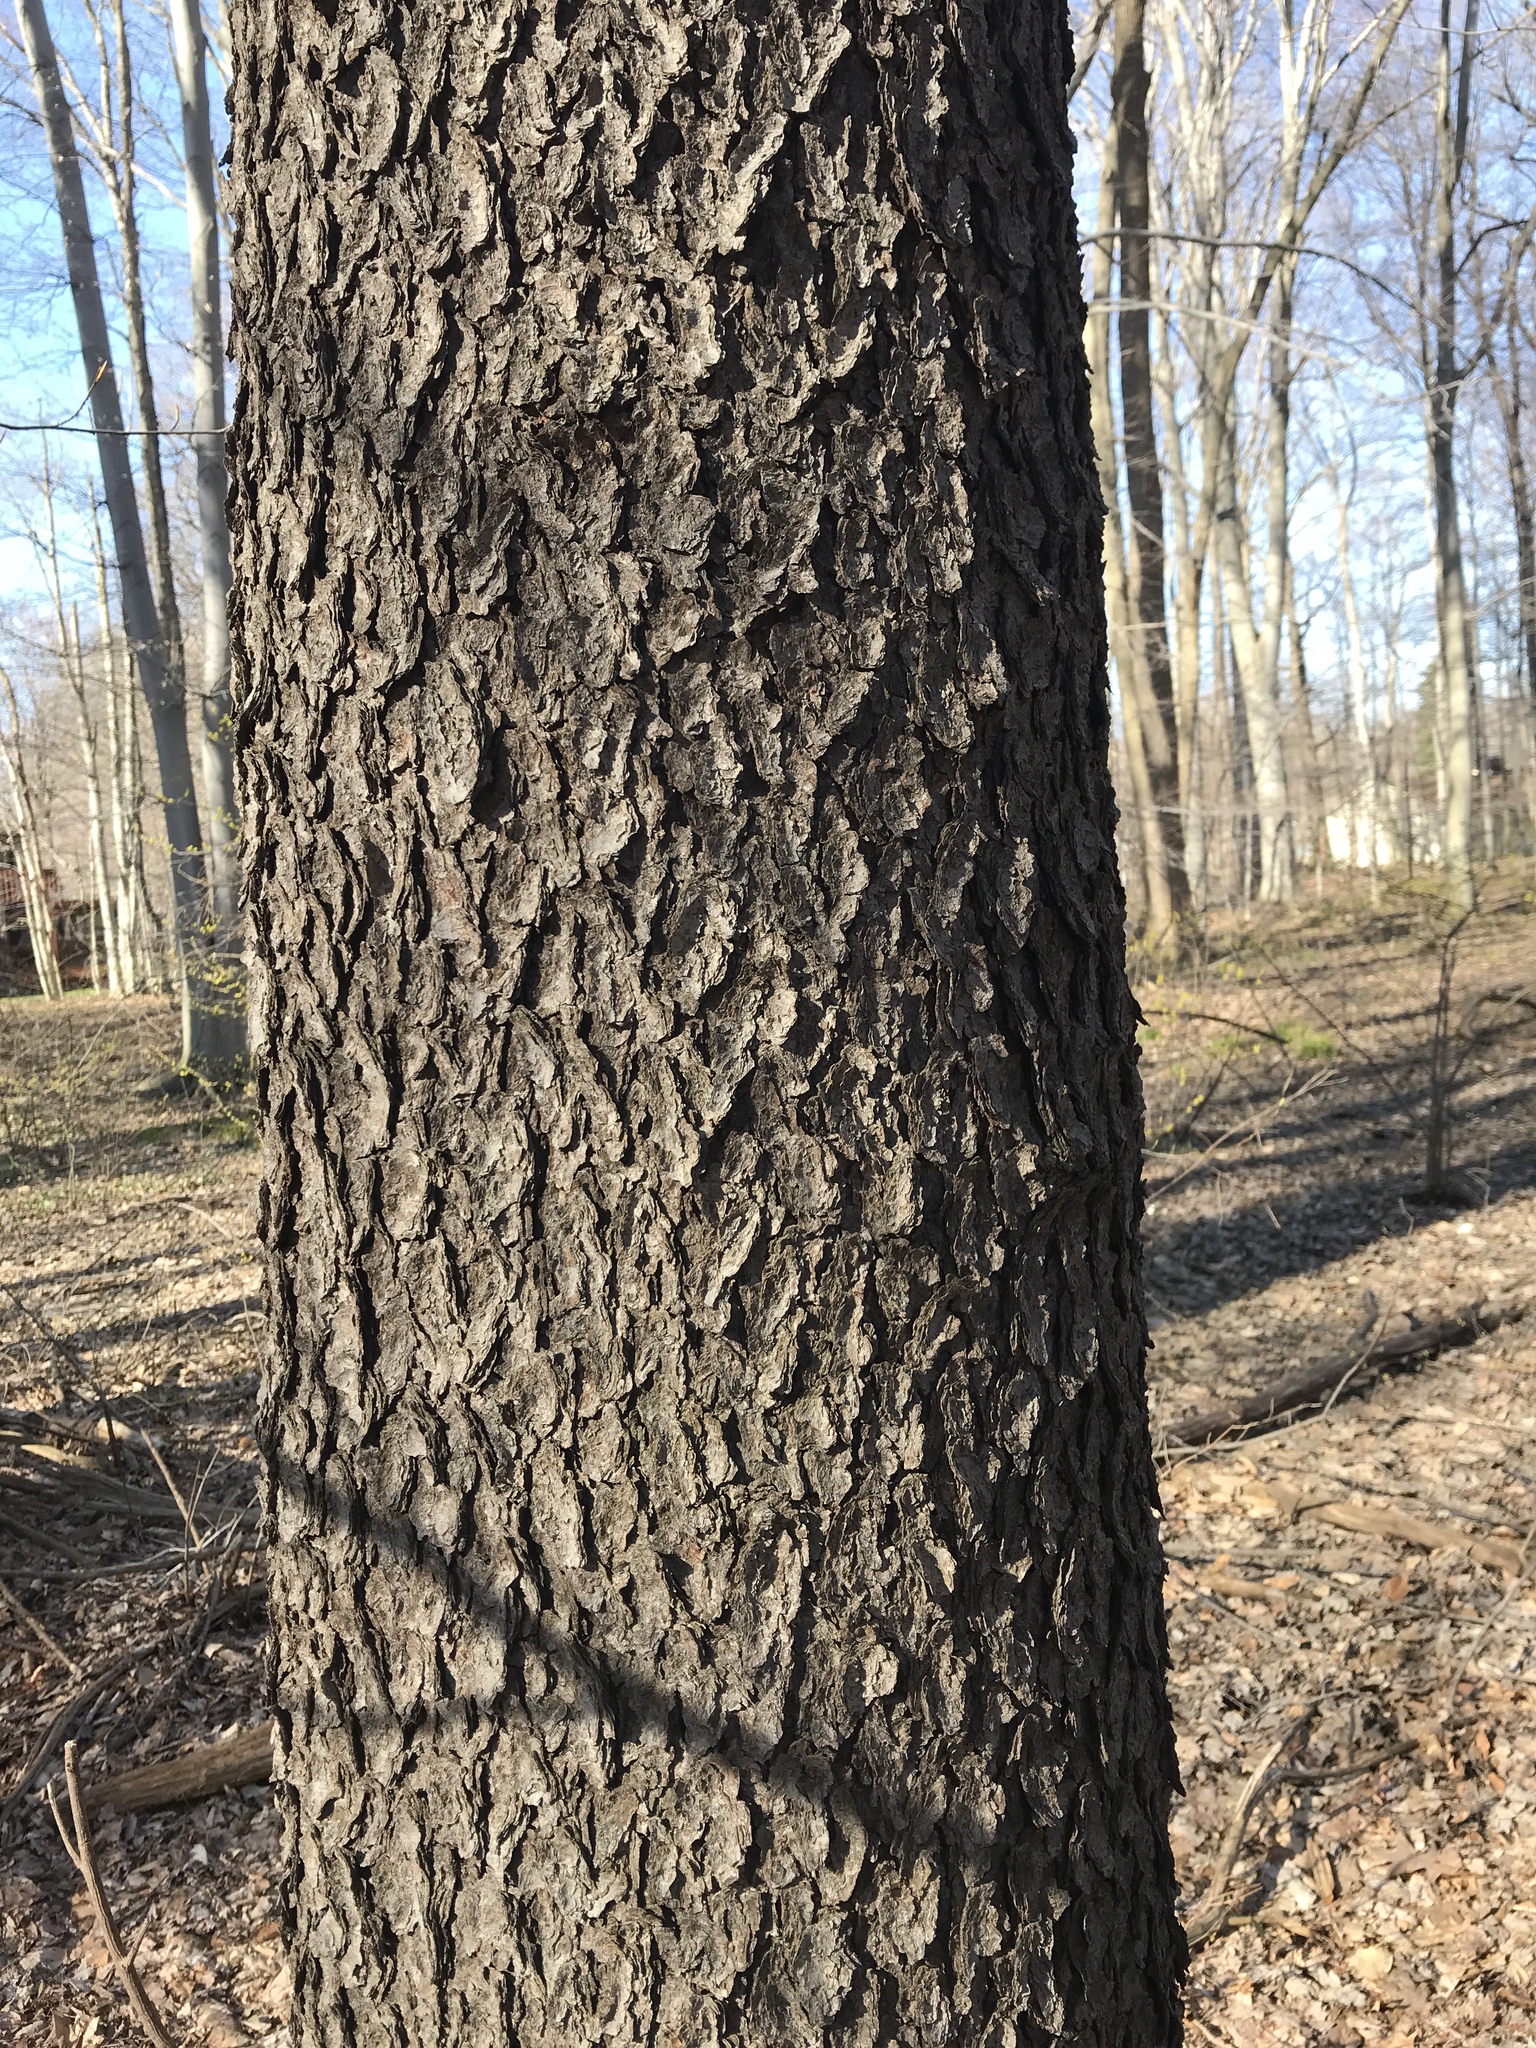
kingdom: Plantae
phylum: Tracheophyta
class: Magnoliopsida
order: Rosales
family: Rosaceae
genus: Prunus
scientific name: Prunus serotina
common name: Black cherry
